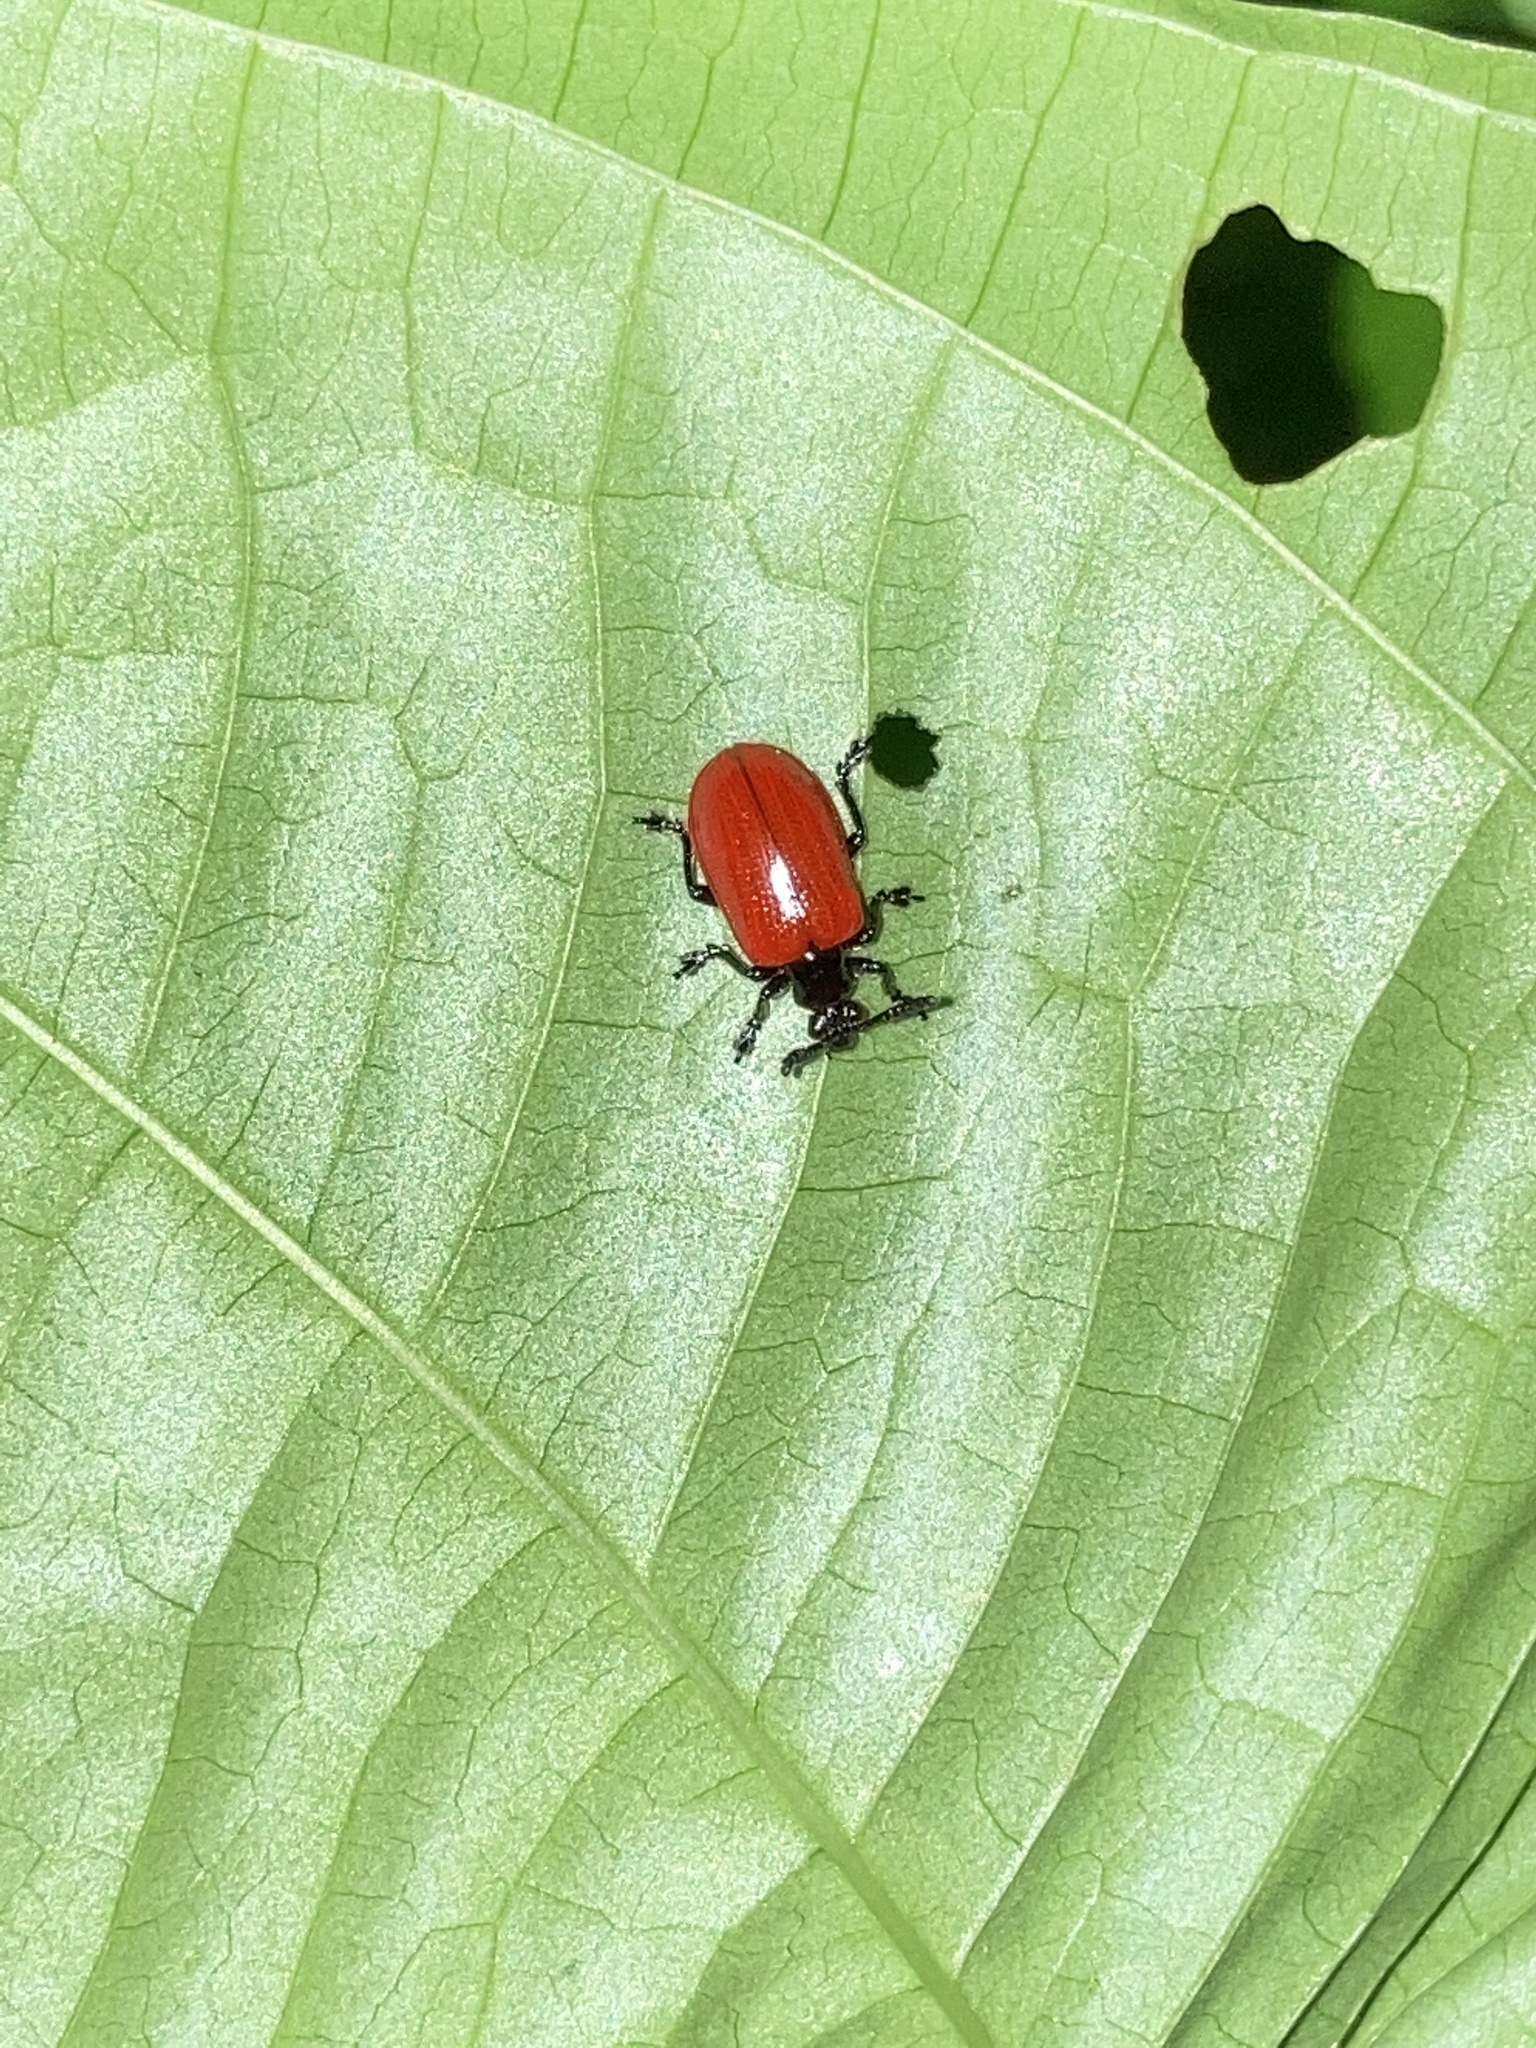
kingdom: Animalia
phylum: Arthropoda
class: Insecta
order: Coleoptera
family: Chrysomelidae
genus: Lilioceris
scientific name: Lilioceris cheni
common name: Leaf beetle
